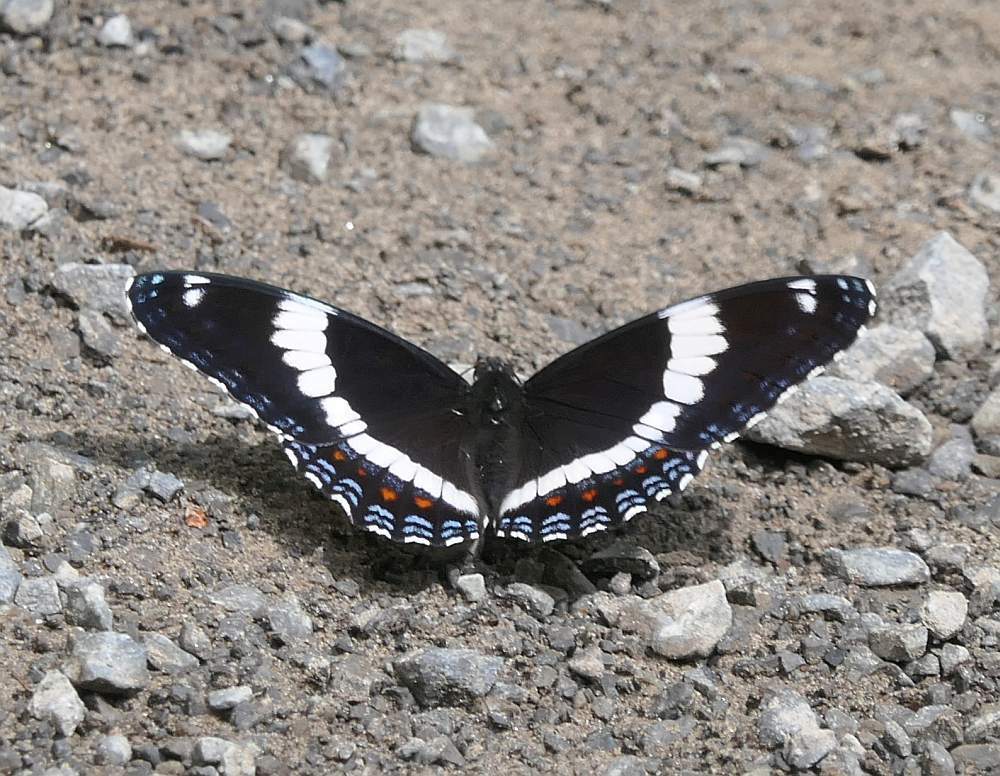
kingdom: Animalia
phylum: Arthropoda
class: Insecta
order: Lepidoptera
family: Nymphalidae
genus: Limenitis
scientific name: Limenitis arthemis
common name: Red-spotted admiral
